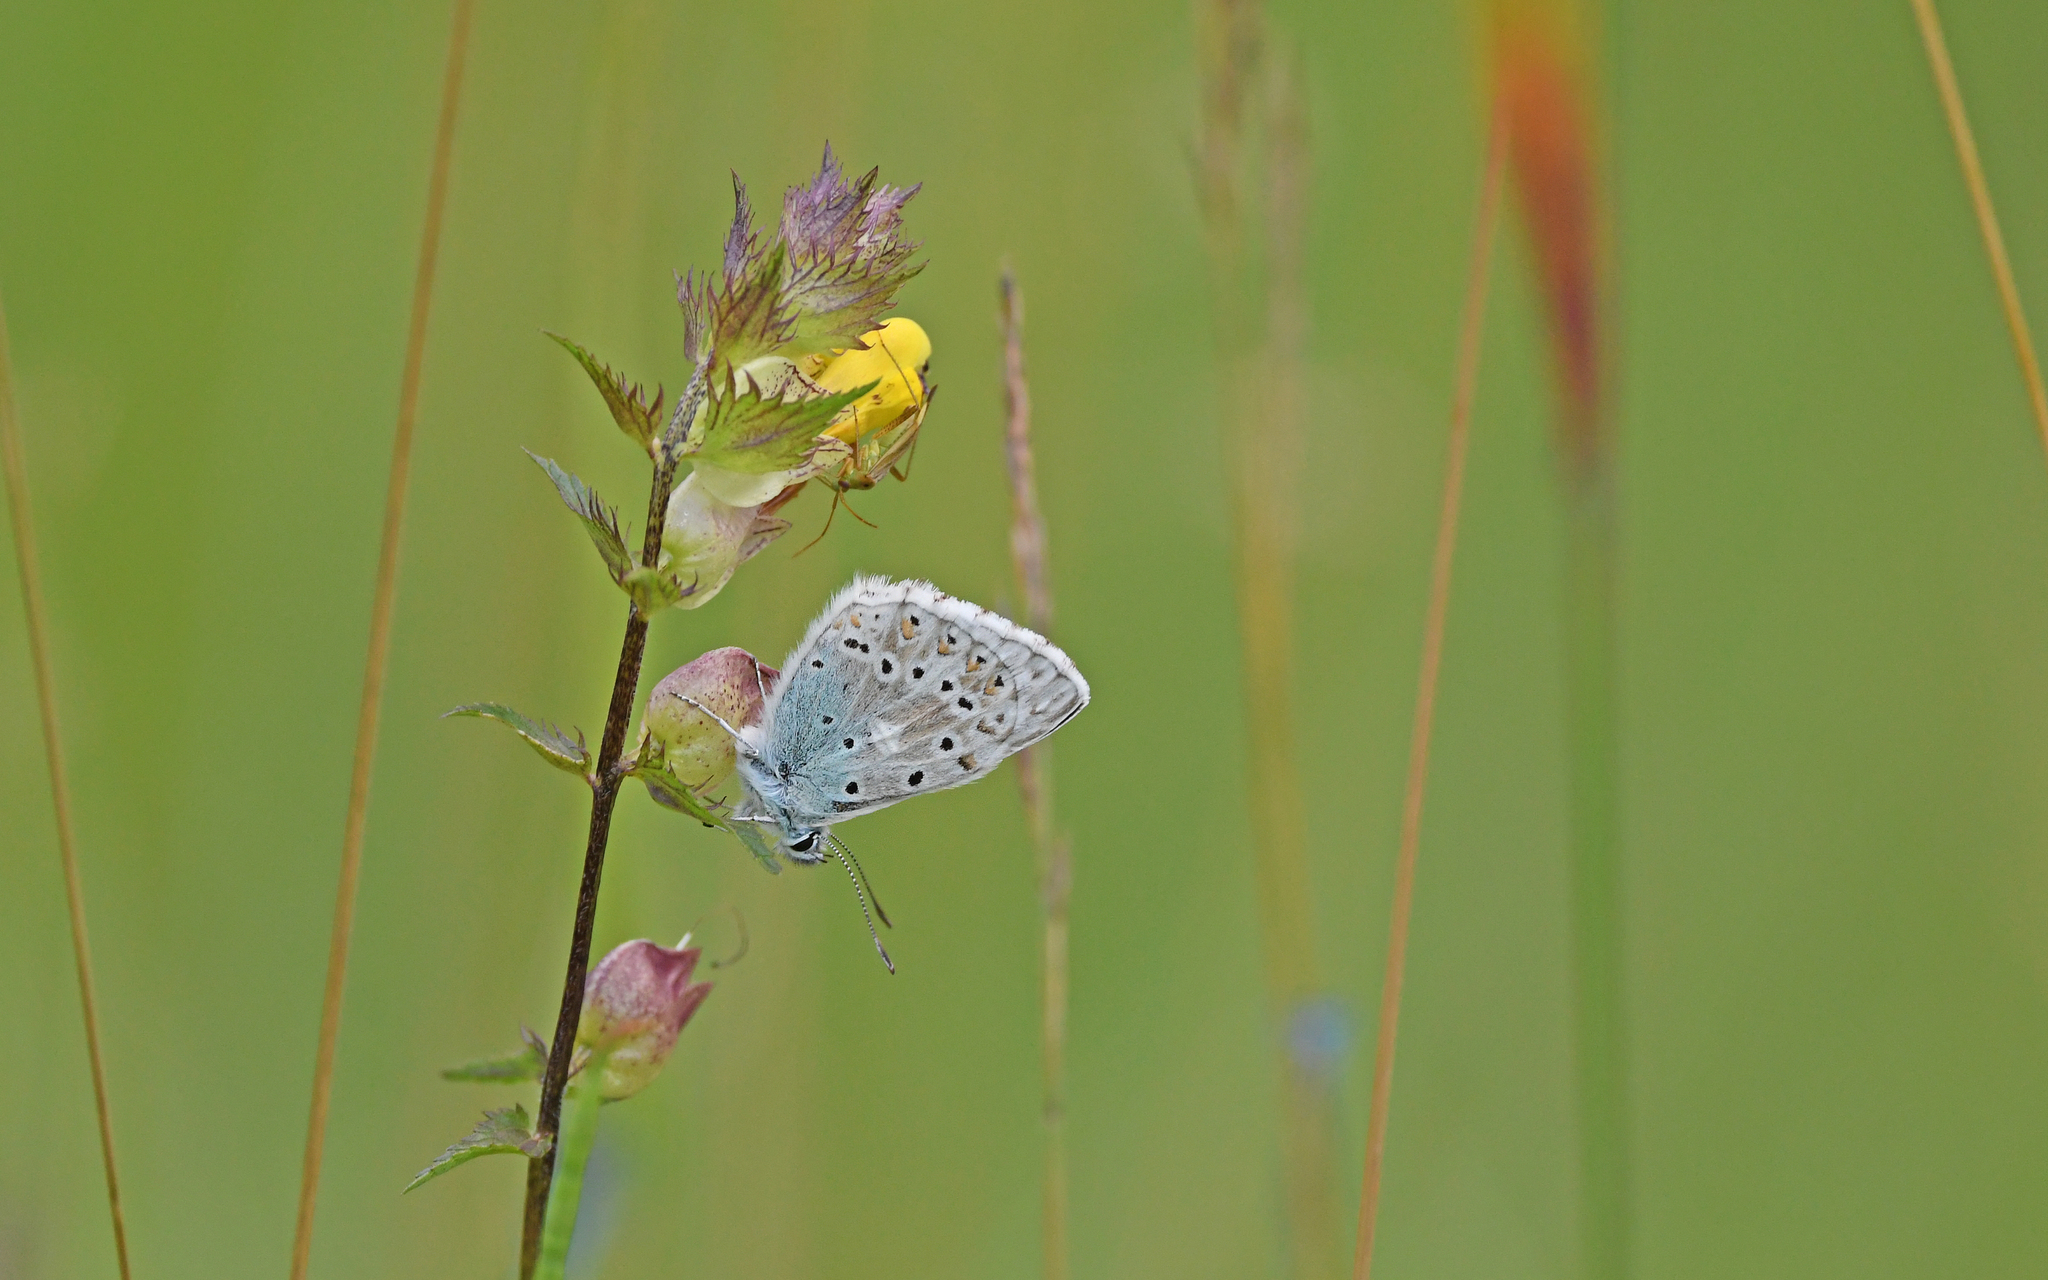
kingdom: Animalia
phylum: Arthropoda
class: Insecta
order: Lepidoptera
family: Lycaenidae
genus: Lysandra
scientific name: Lysandra coridon
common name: Chalkhill blue
